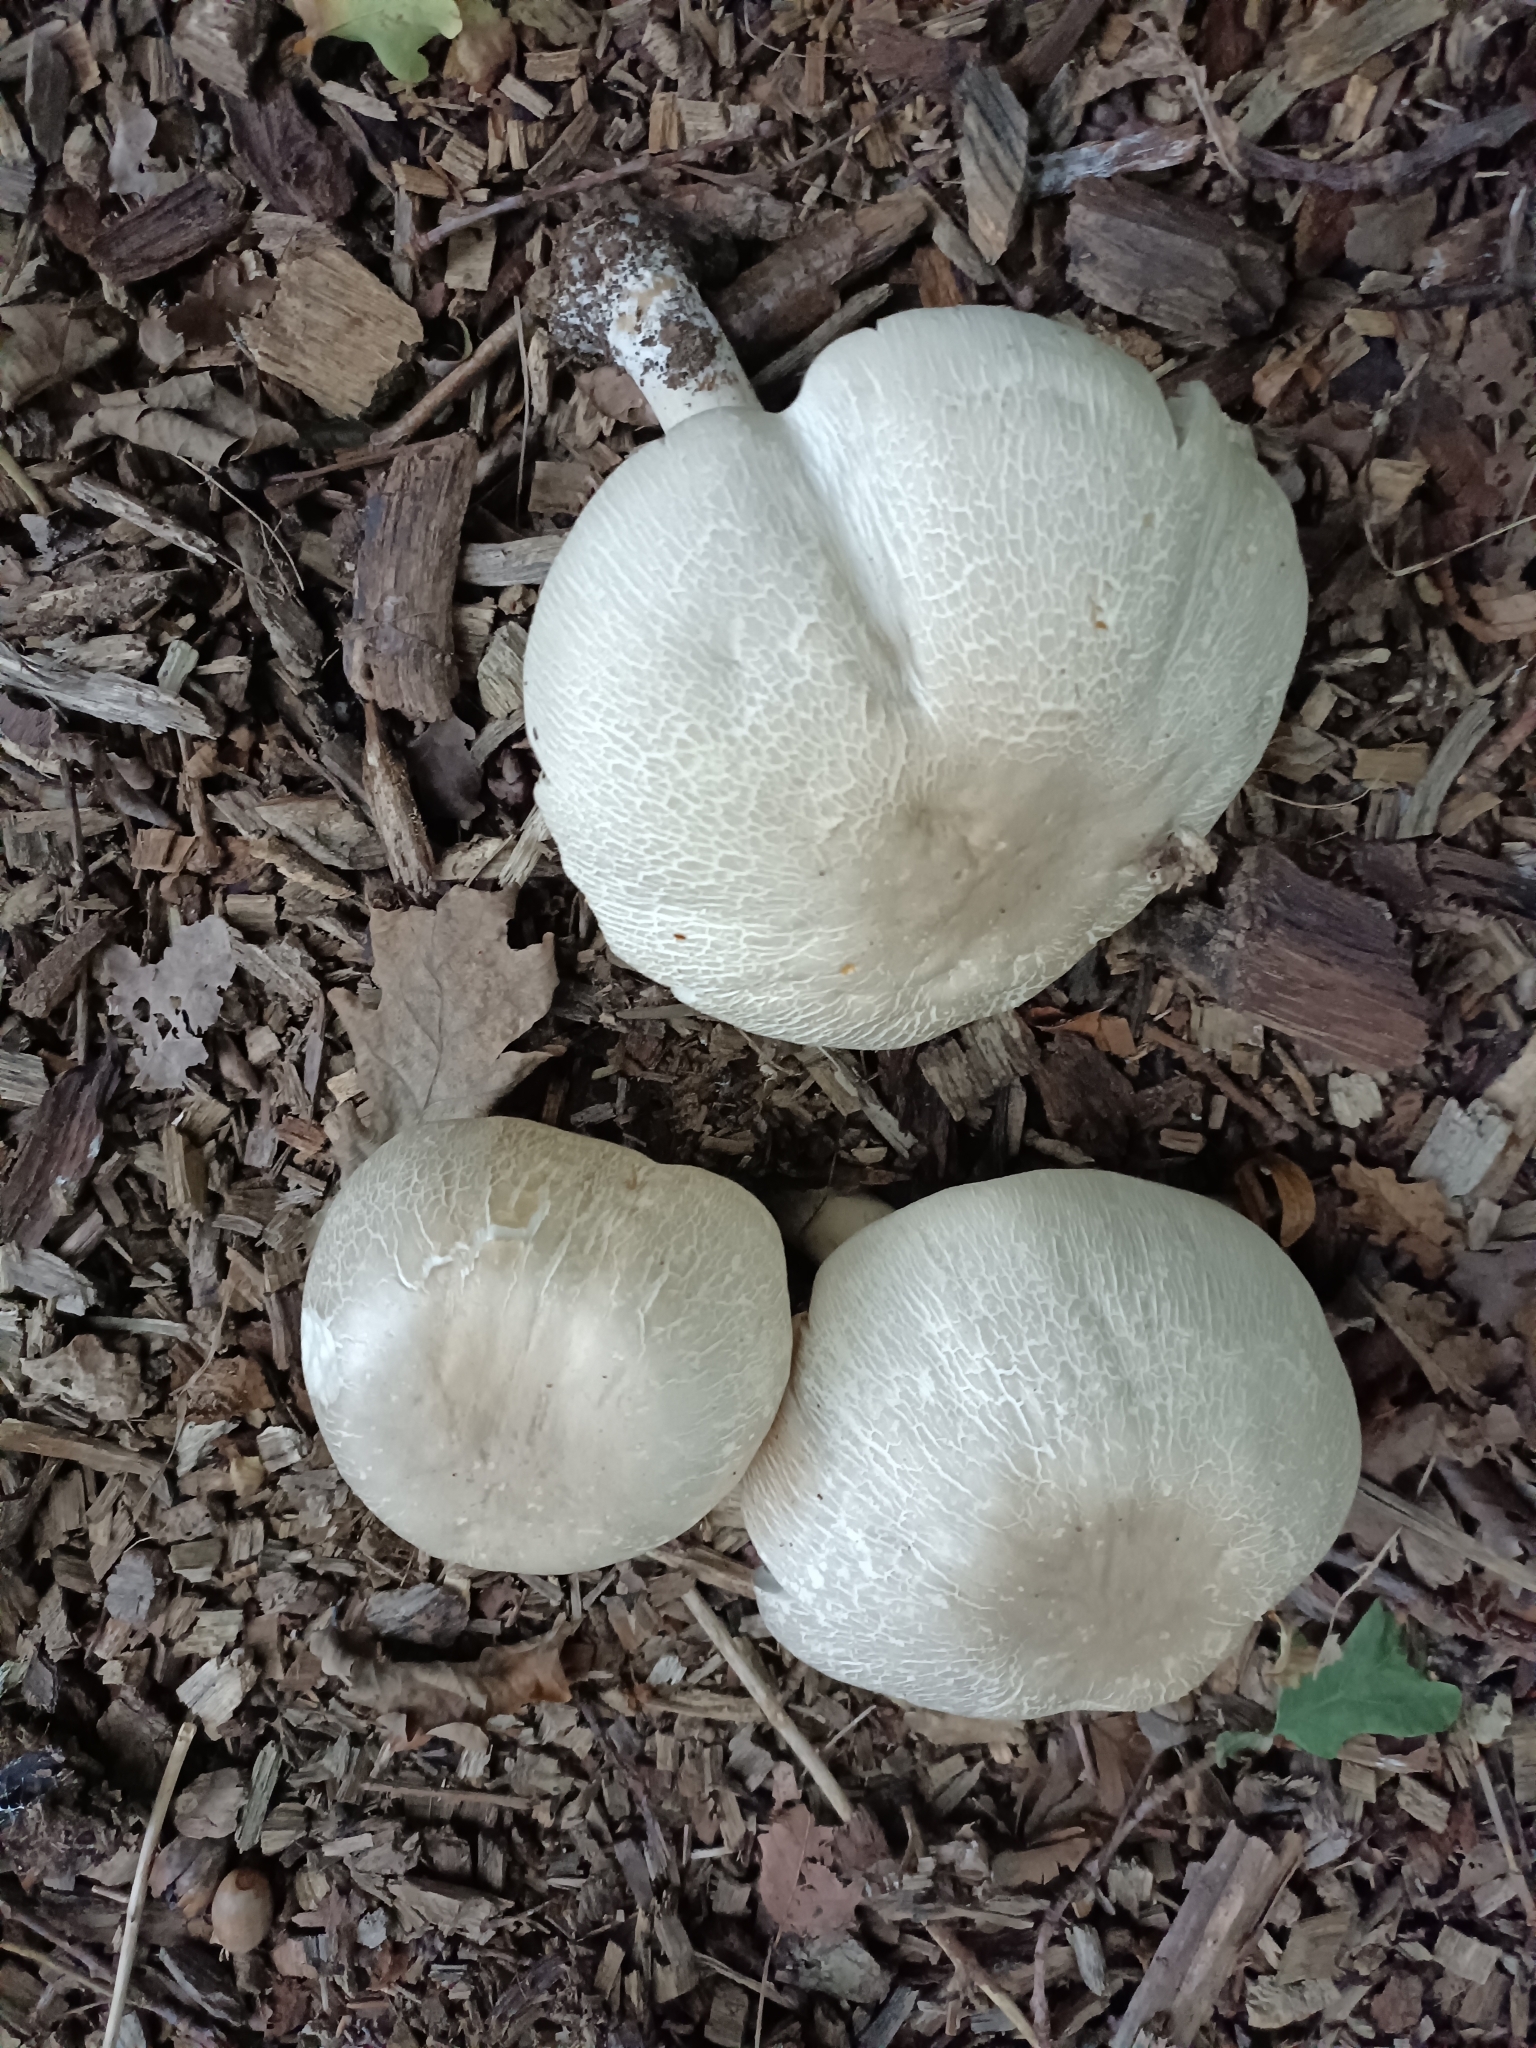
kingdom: Fungi
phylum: Basidiomycota
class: Agaricomycetes
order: Agaricales
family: Agaricaceae
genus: Agaricus
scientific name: Agaricus xanthodermus
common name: Yellow stainer
